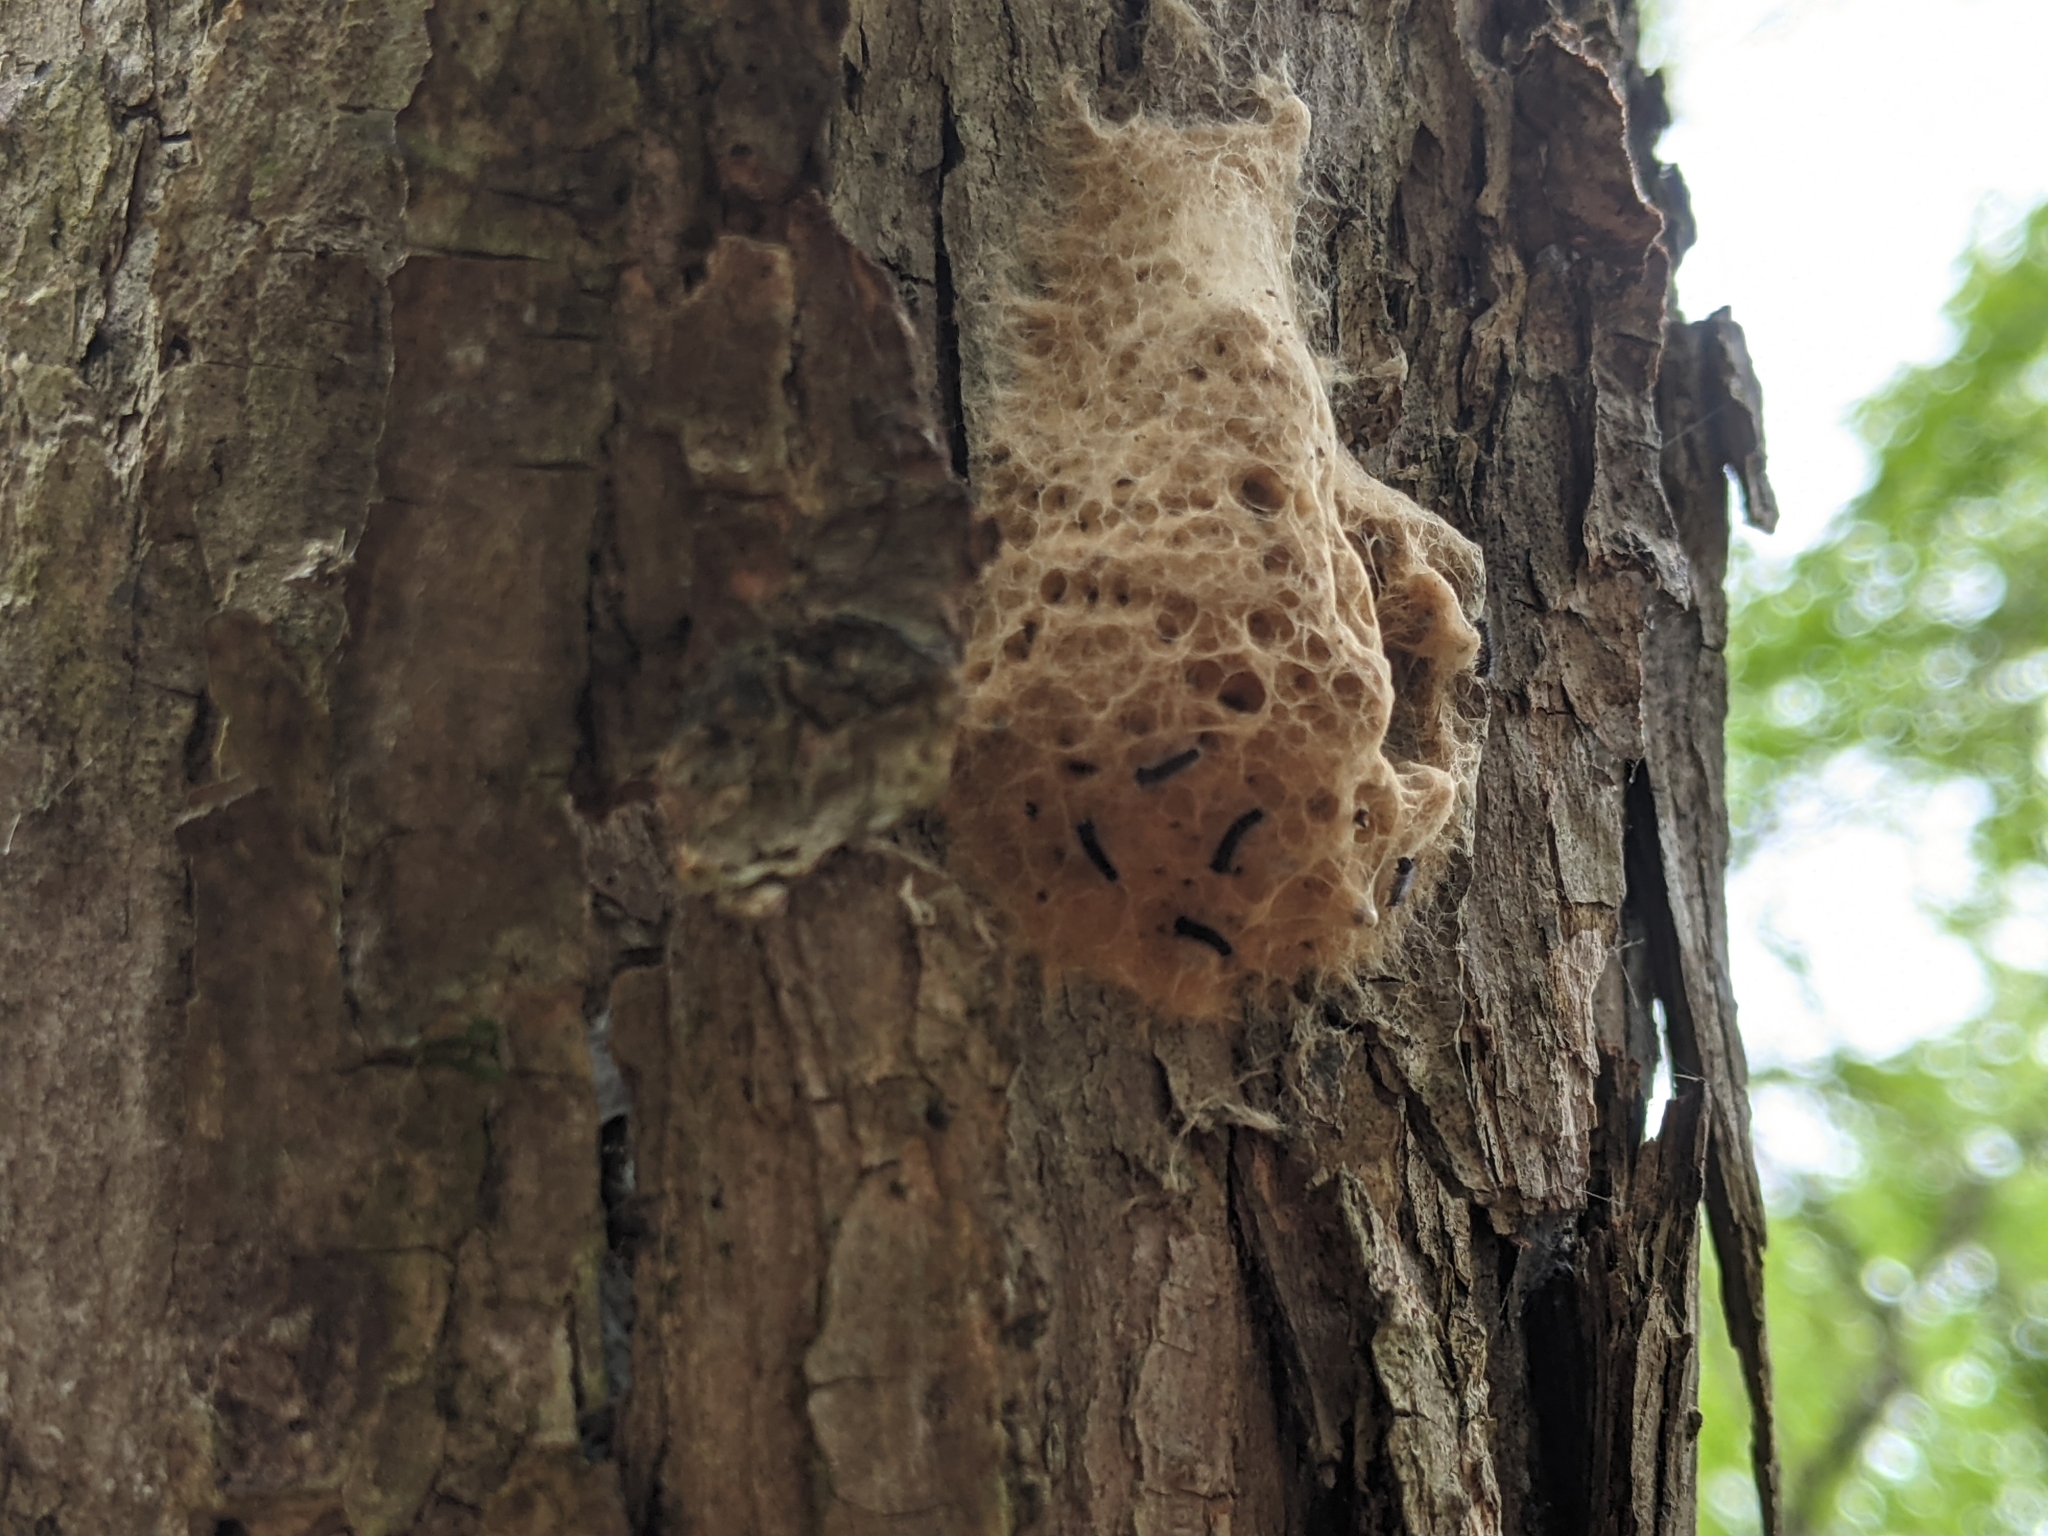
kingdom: Animalia
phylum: Arthropoda
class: Insecta
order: Lepidoptera
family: Erebidae
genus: Lymantria
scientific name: Lymantria dispar
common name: Gypsy moth
